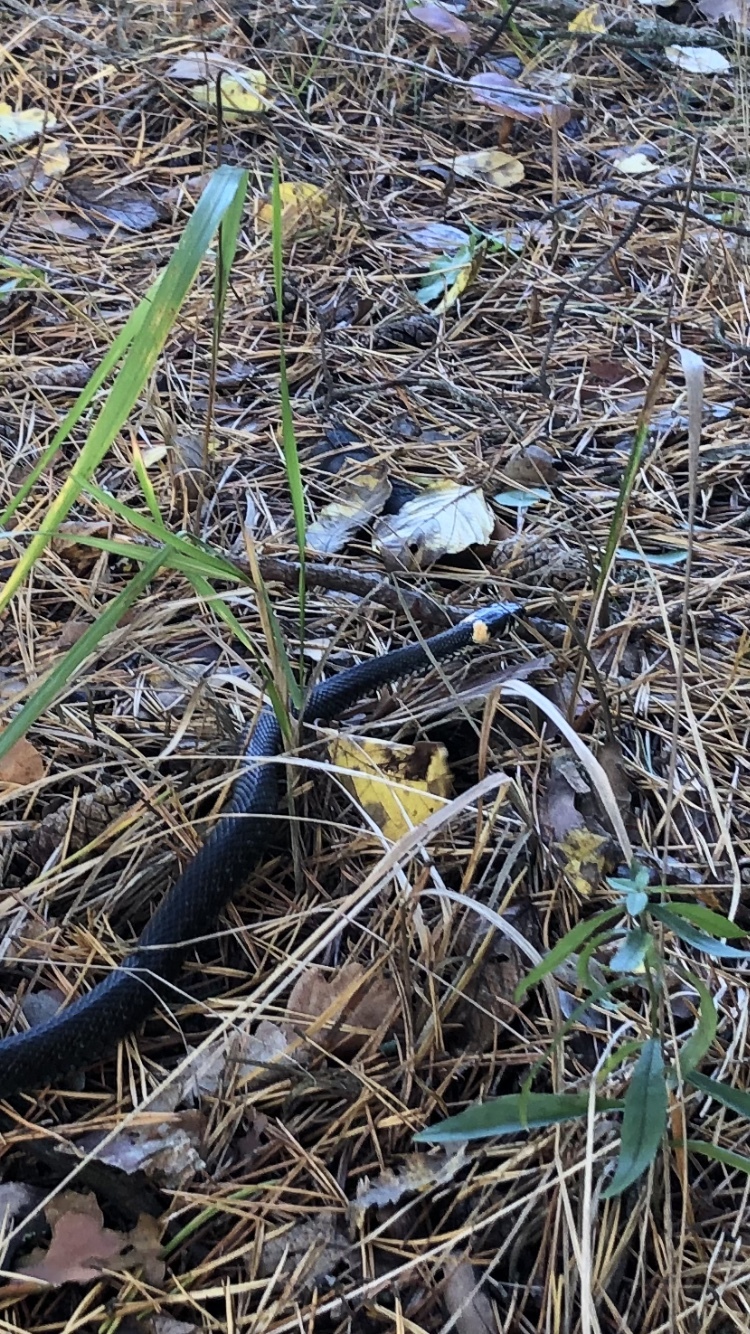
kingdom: Animalia
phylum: Chordata
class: Squamata
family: Colubridae
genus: Natrix
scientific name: Natrix natrix
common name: Grass snake
